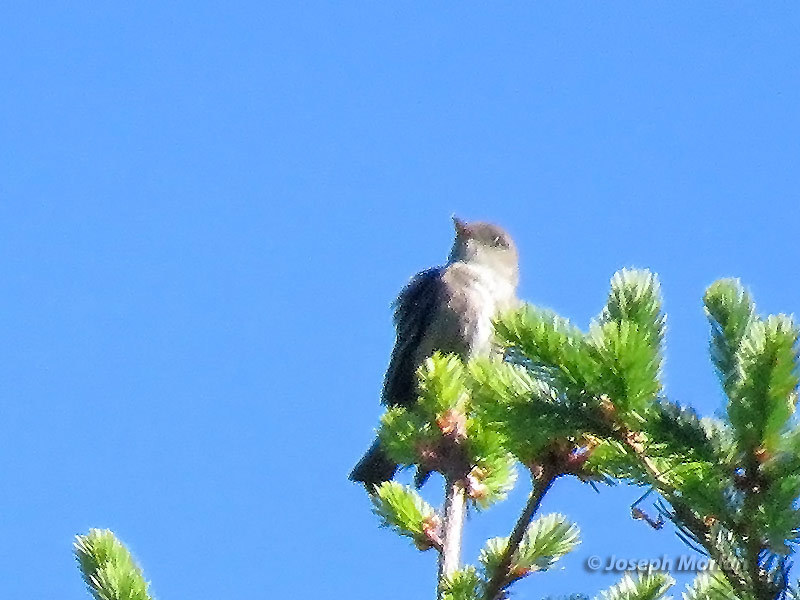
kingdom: Animalia
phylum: Chordata
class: Aves
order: Passeriformes
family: Tyrannidae
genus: Contopus
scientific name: Contopus cooperi
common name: Olive-sided flycatcher
